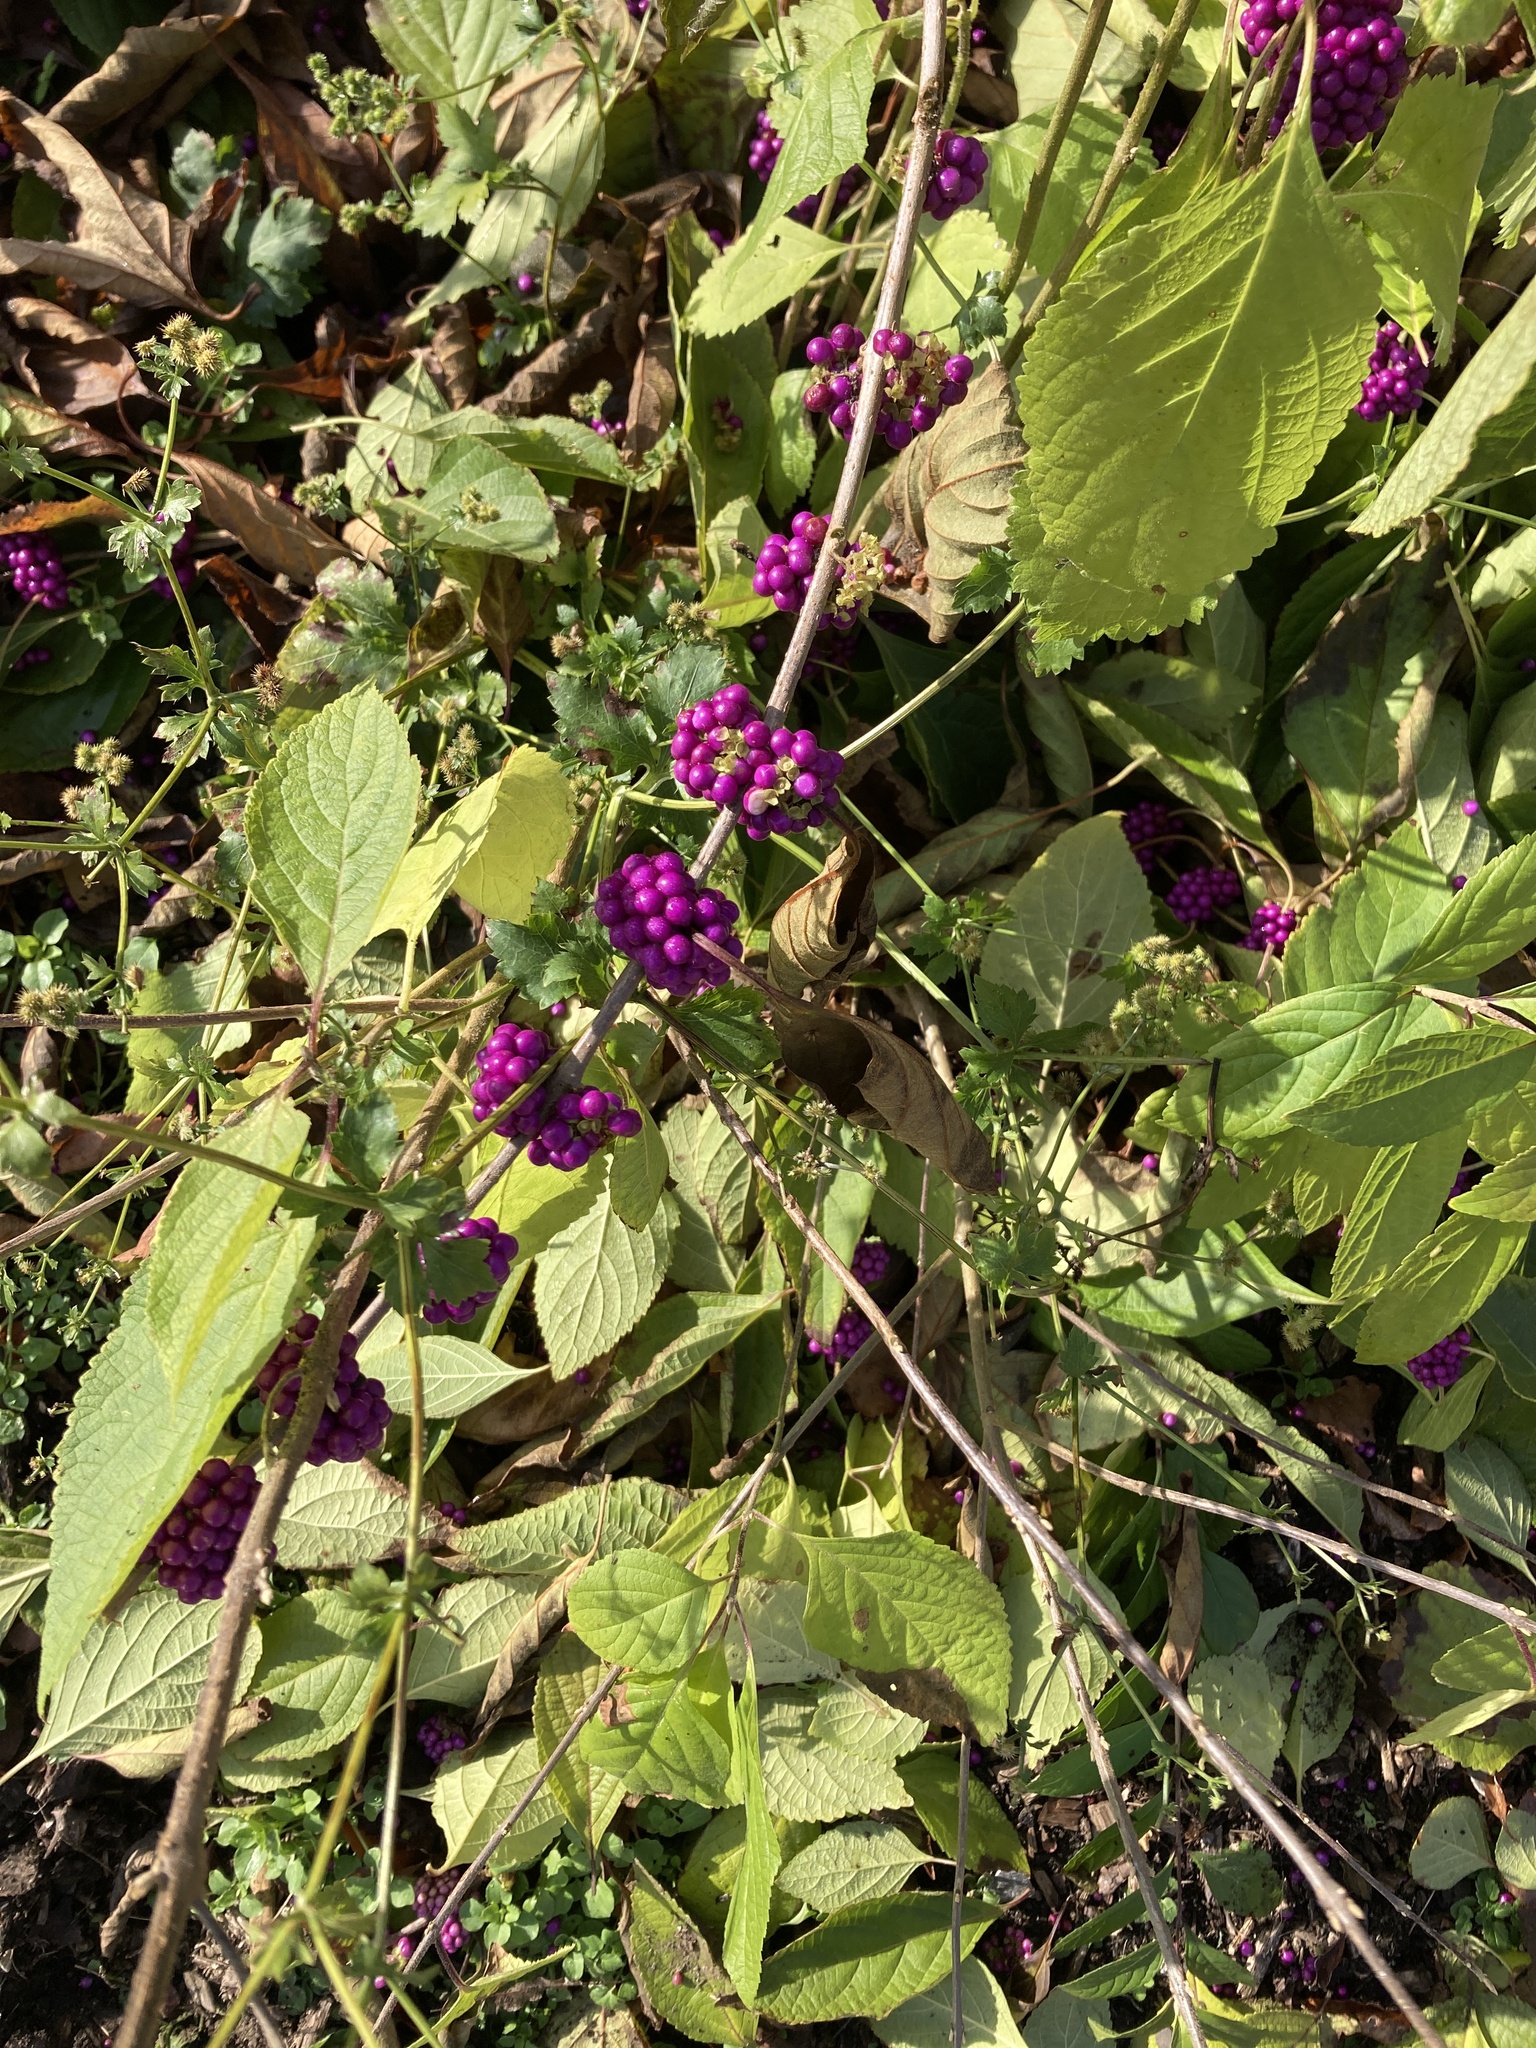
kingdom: Plantae
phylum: Tracheophyta
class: Magnoliopsida
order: Lamiales
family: Lamiaceae
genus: Callicarpa
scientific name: Callicarpa americana
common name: American beautyberry
